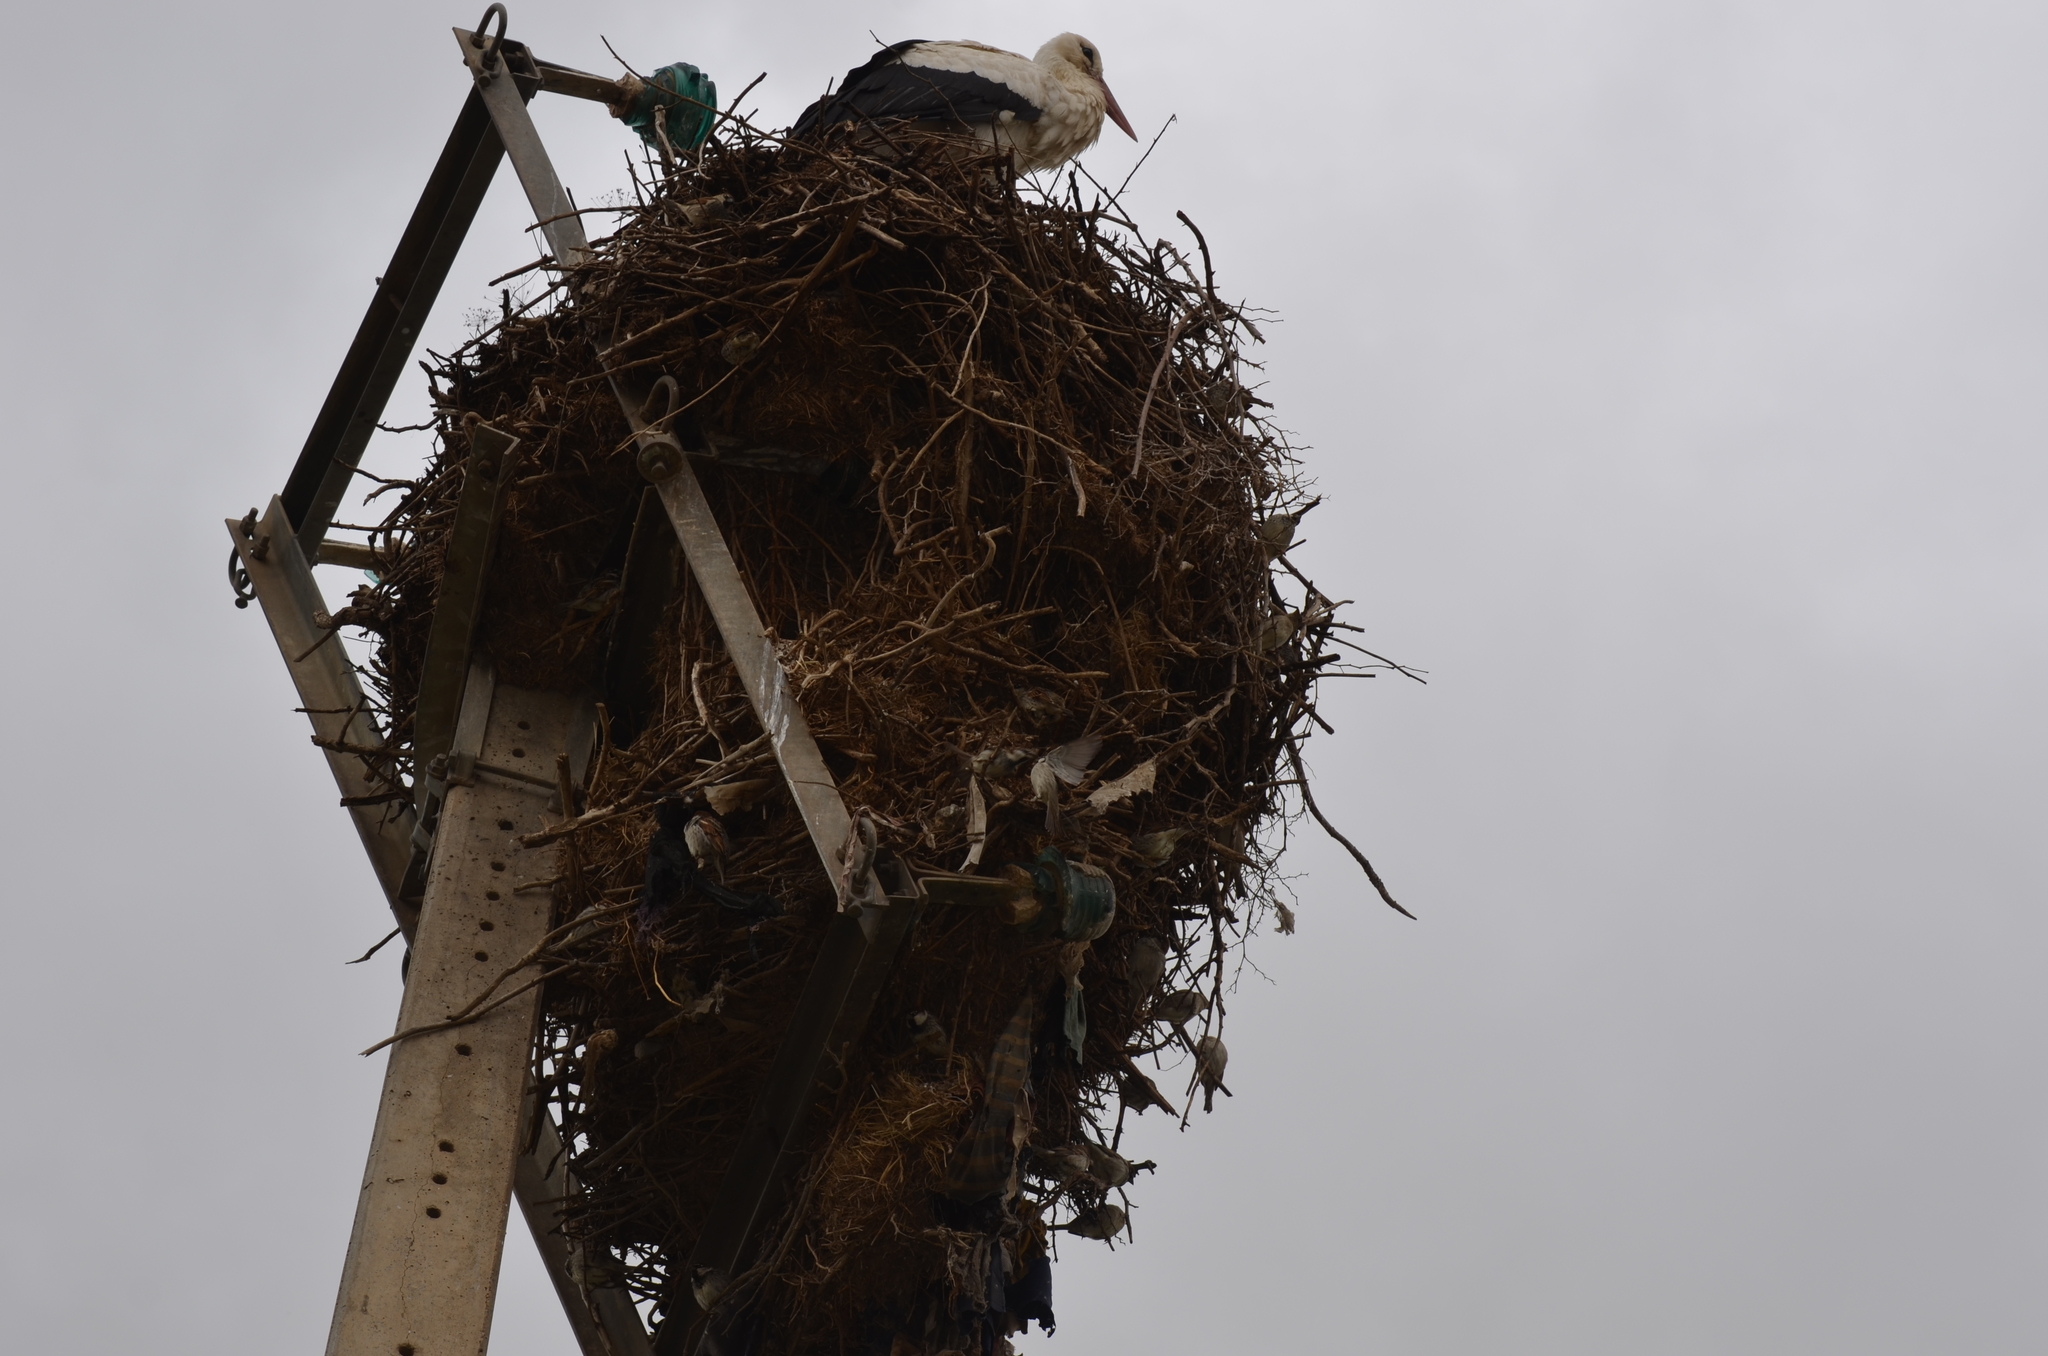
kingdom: Animalia
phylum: Chordata
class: Aves
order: Ciconiiformes
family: Ciconiidae
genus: Ciconia
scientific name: Ciconia ciconia
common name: White stork
